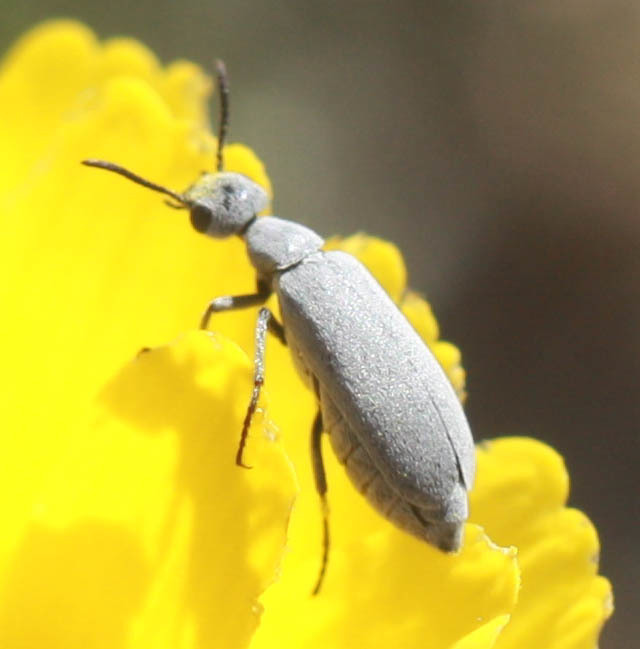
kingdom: Animalia
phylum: Arthropoda
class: Insecta
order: Coleoptera
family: Meloidae
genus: Epicauta
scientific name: Epicauta fortis
